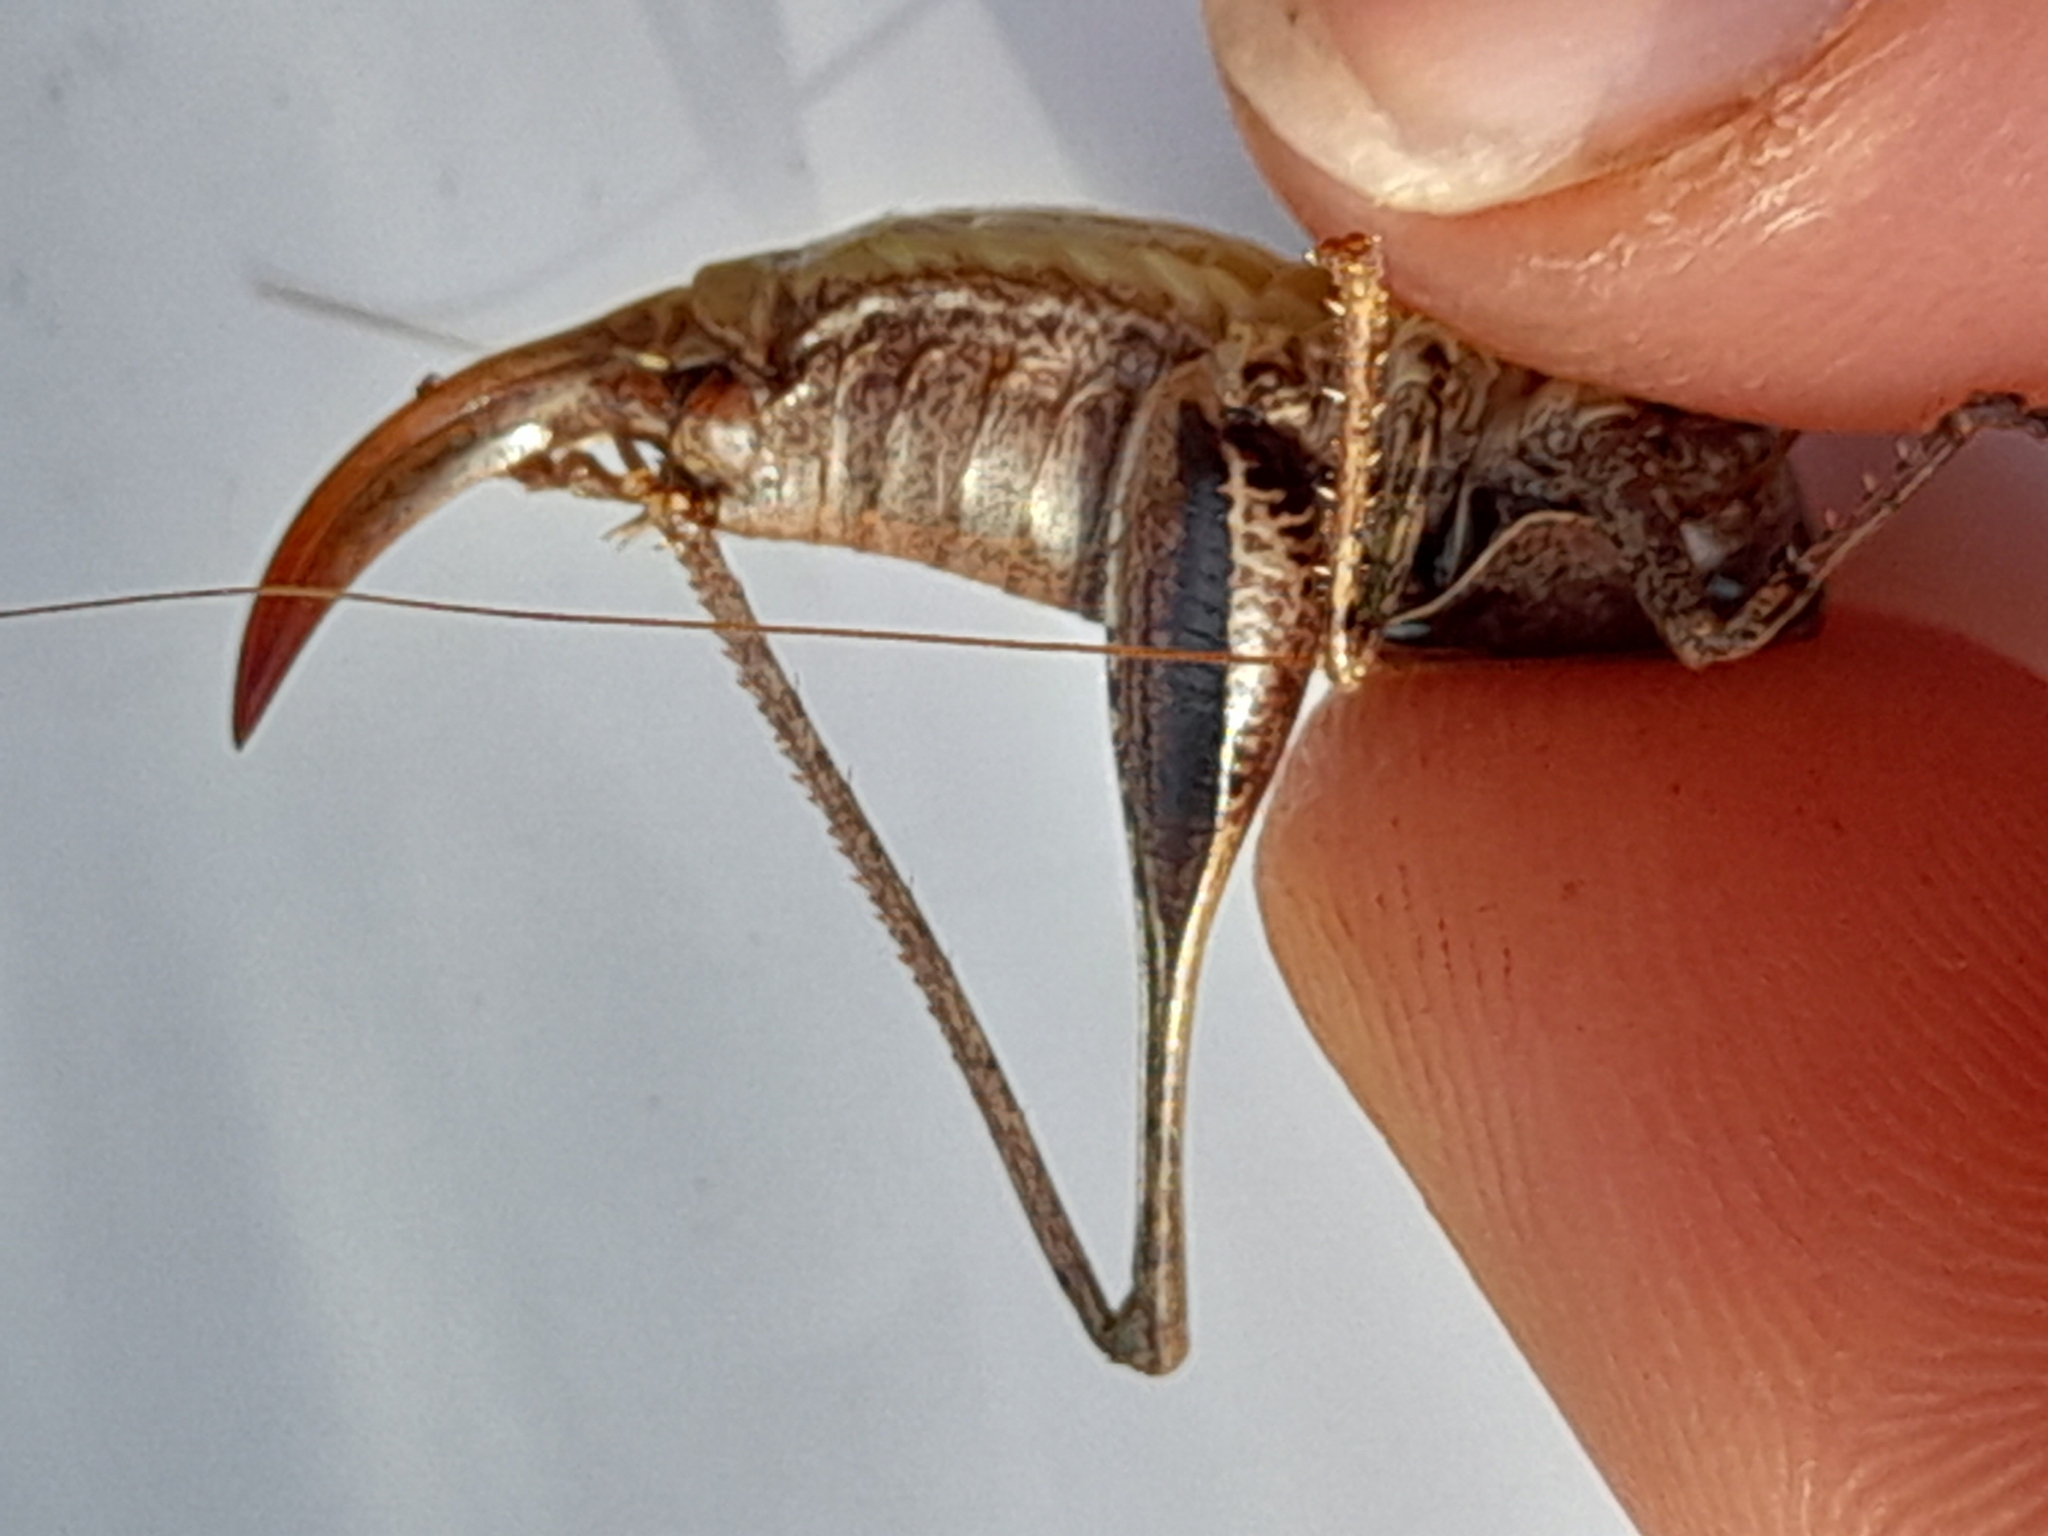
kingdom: Animalia
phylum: Arthropoda
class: Insecta
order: Orthoptera
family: Tettigoniidae
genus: Pholidoptera
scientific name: Pholidoptera griseoaptera
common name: Dark bush-cricket
